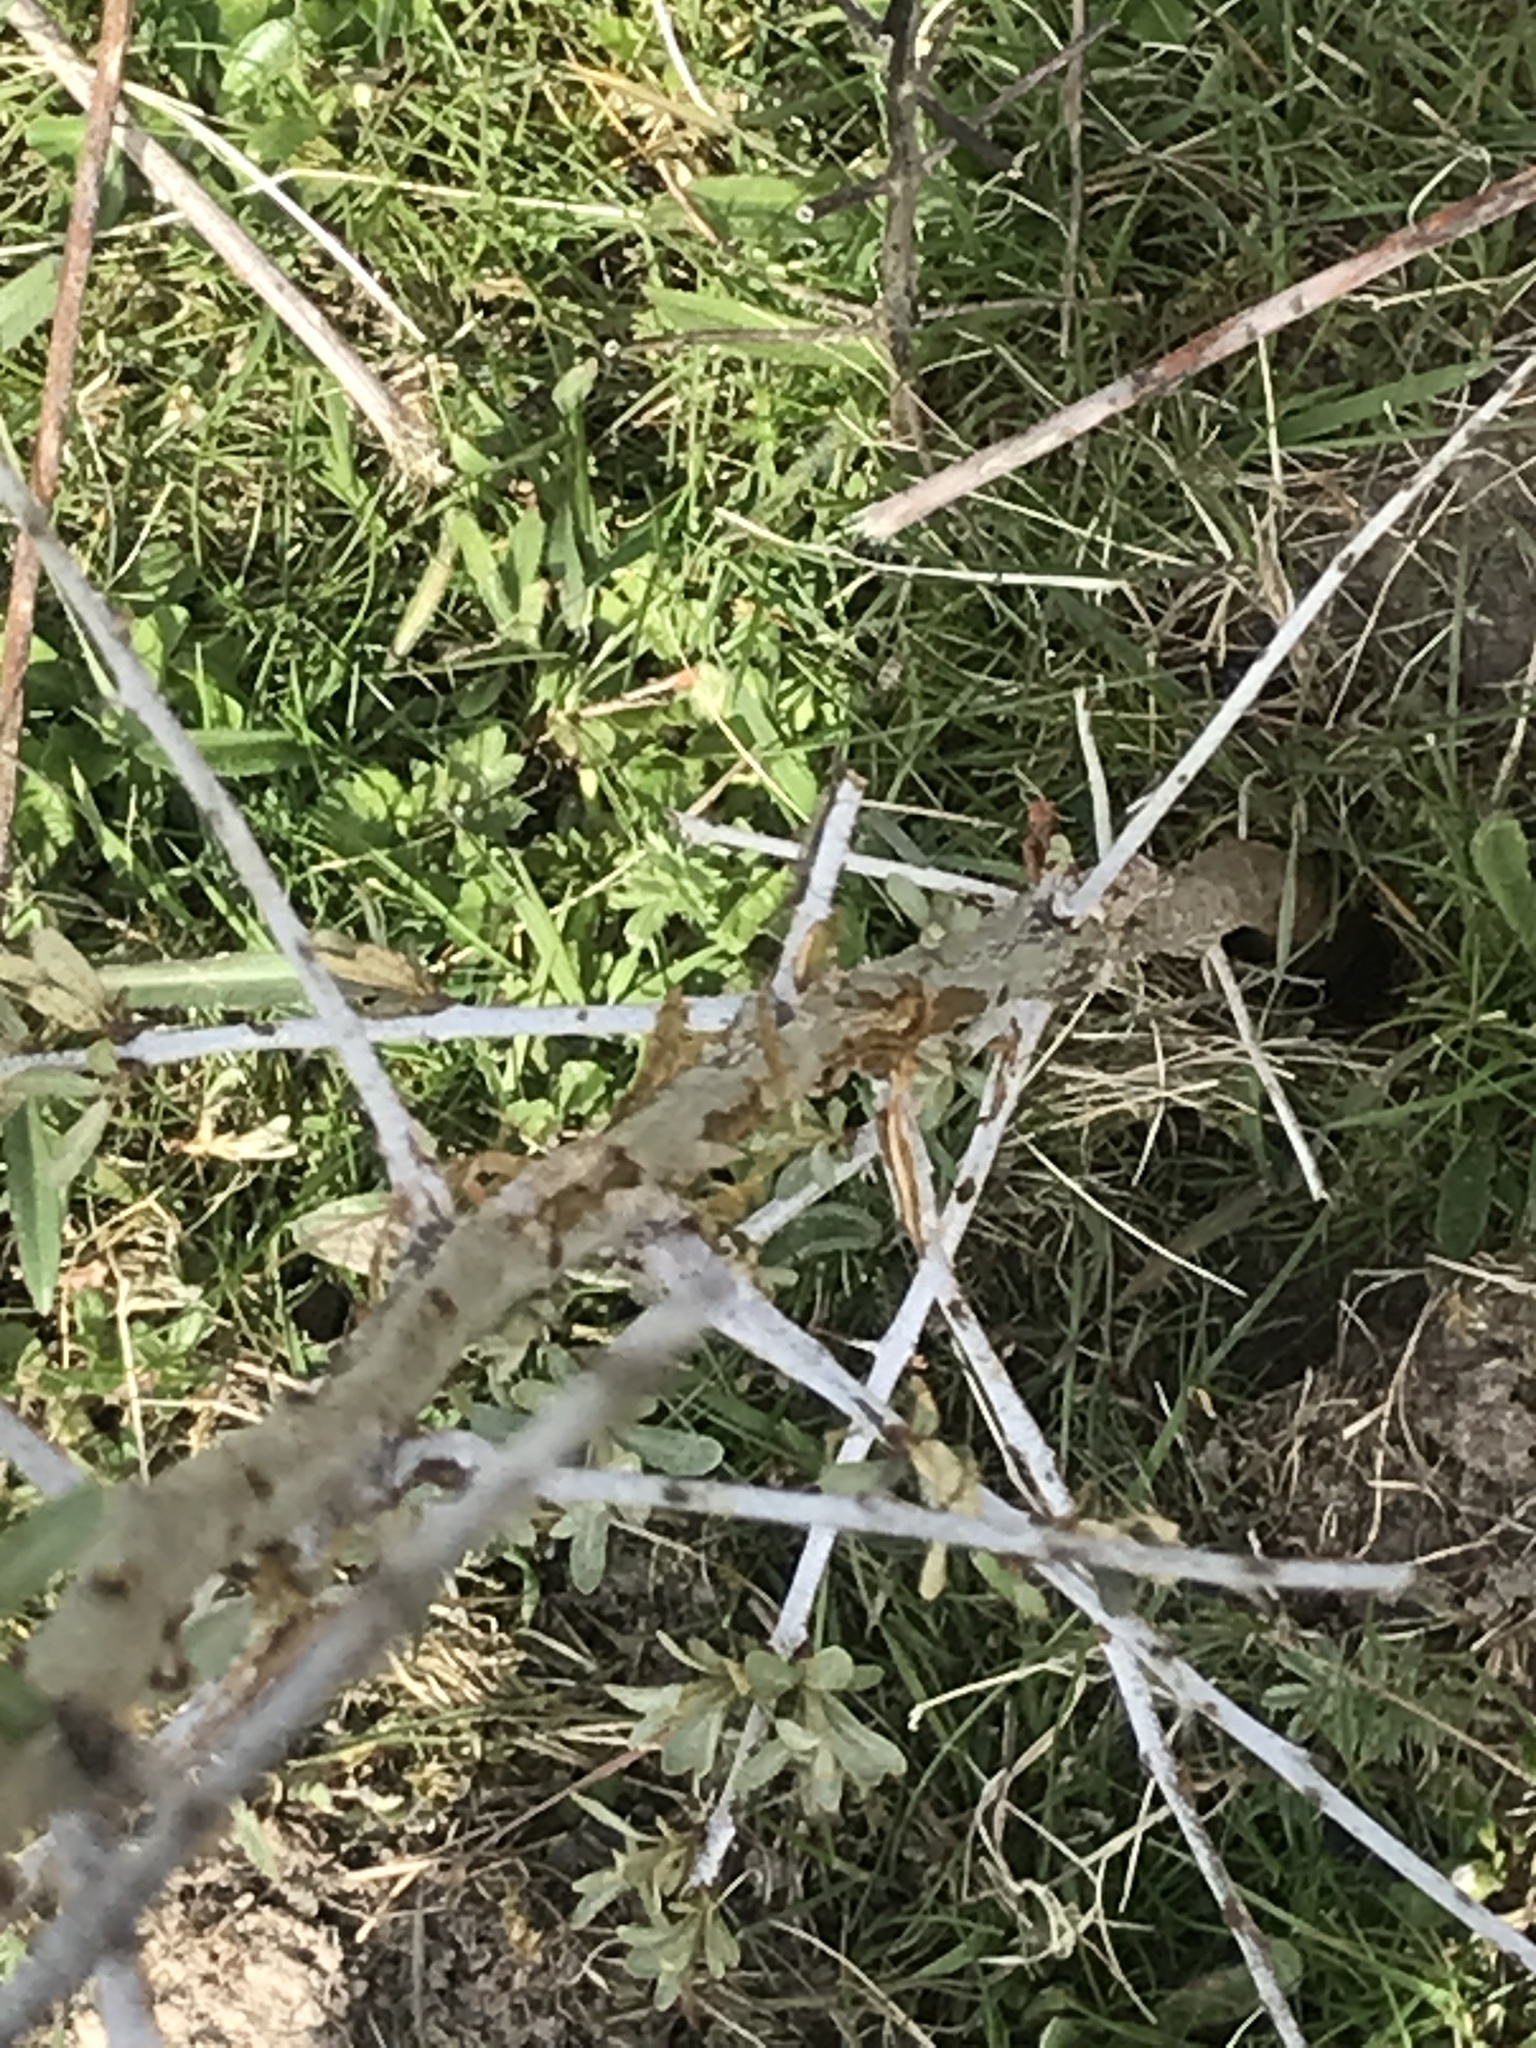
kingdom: Plantae
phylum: Tracheophyta
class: Magnoliopsida
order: Rosales
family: Elaeagnaceae
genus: Hippophae
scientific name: Hippophae rhamnoides
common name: Sea-buckthorn
